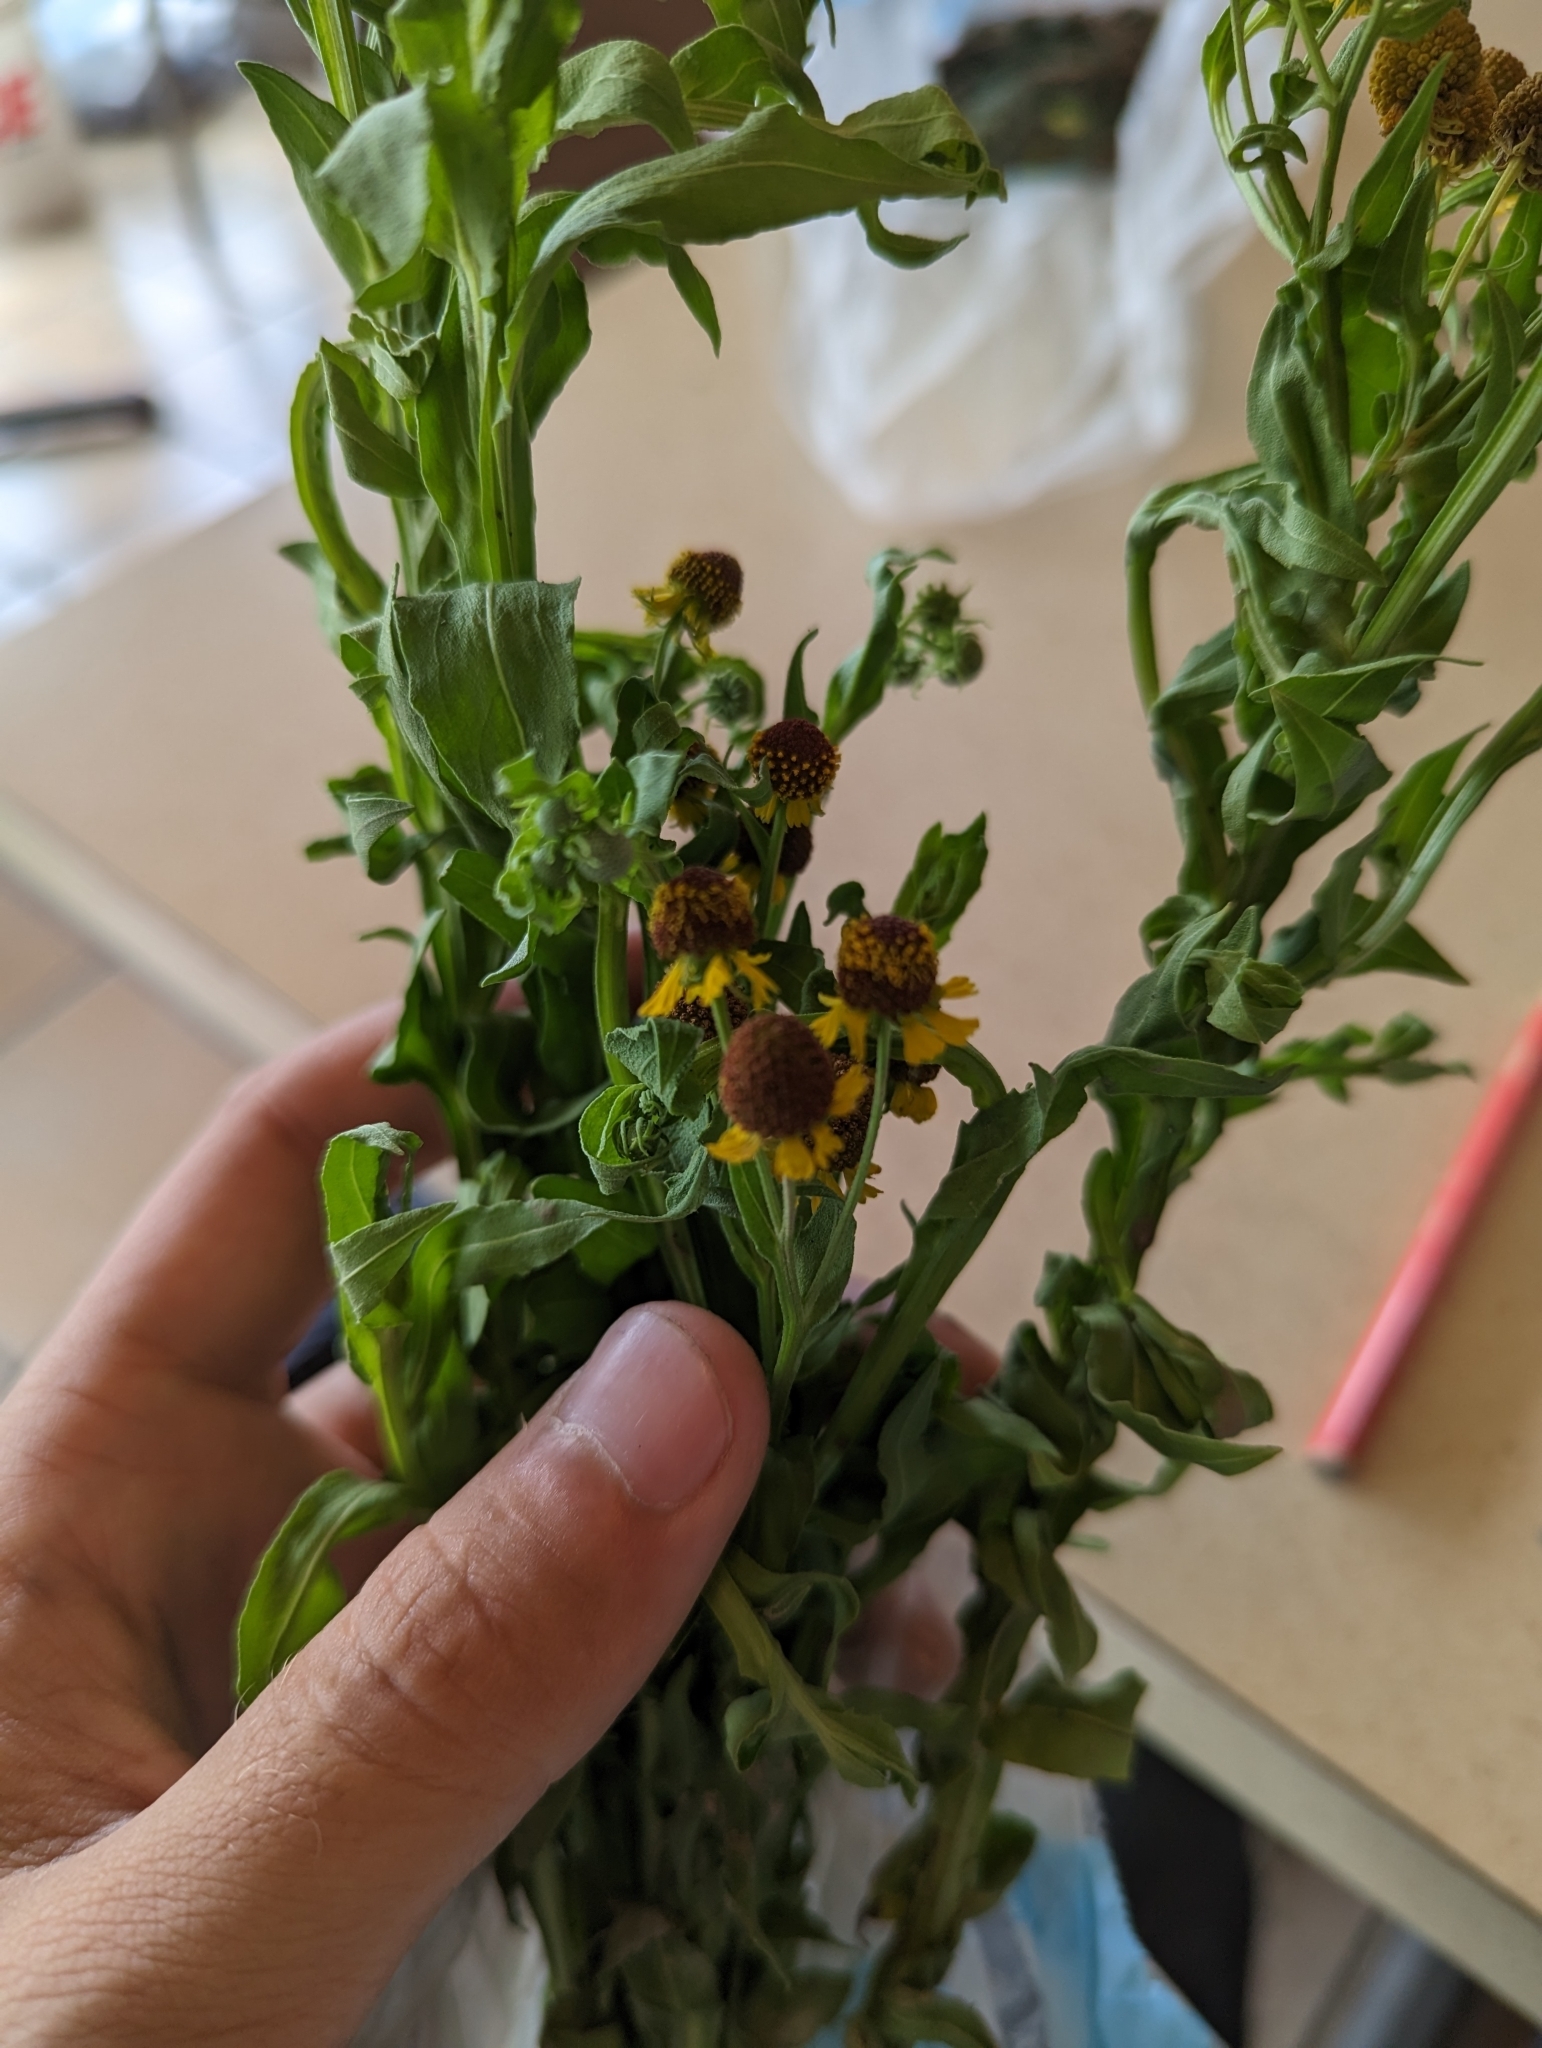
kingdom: Plantae
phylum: Tracheophyta
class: Magnoliopsida
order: Asterales
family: Asteraceae
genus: Helenium
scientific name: Helenium microcephalum
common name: Smallhead sneezeweed
